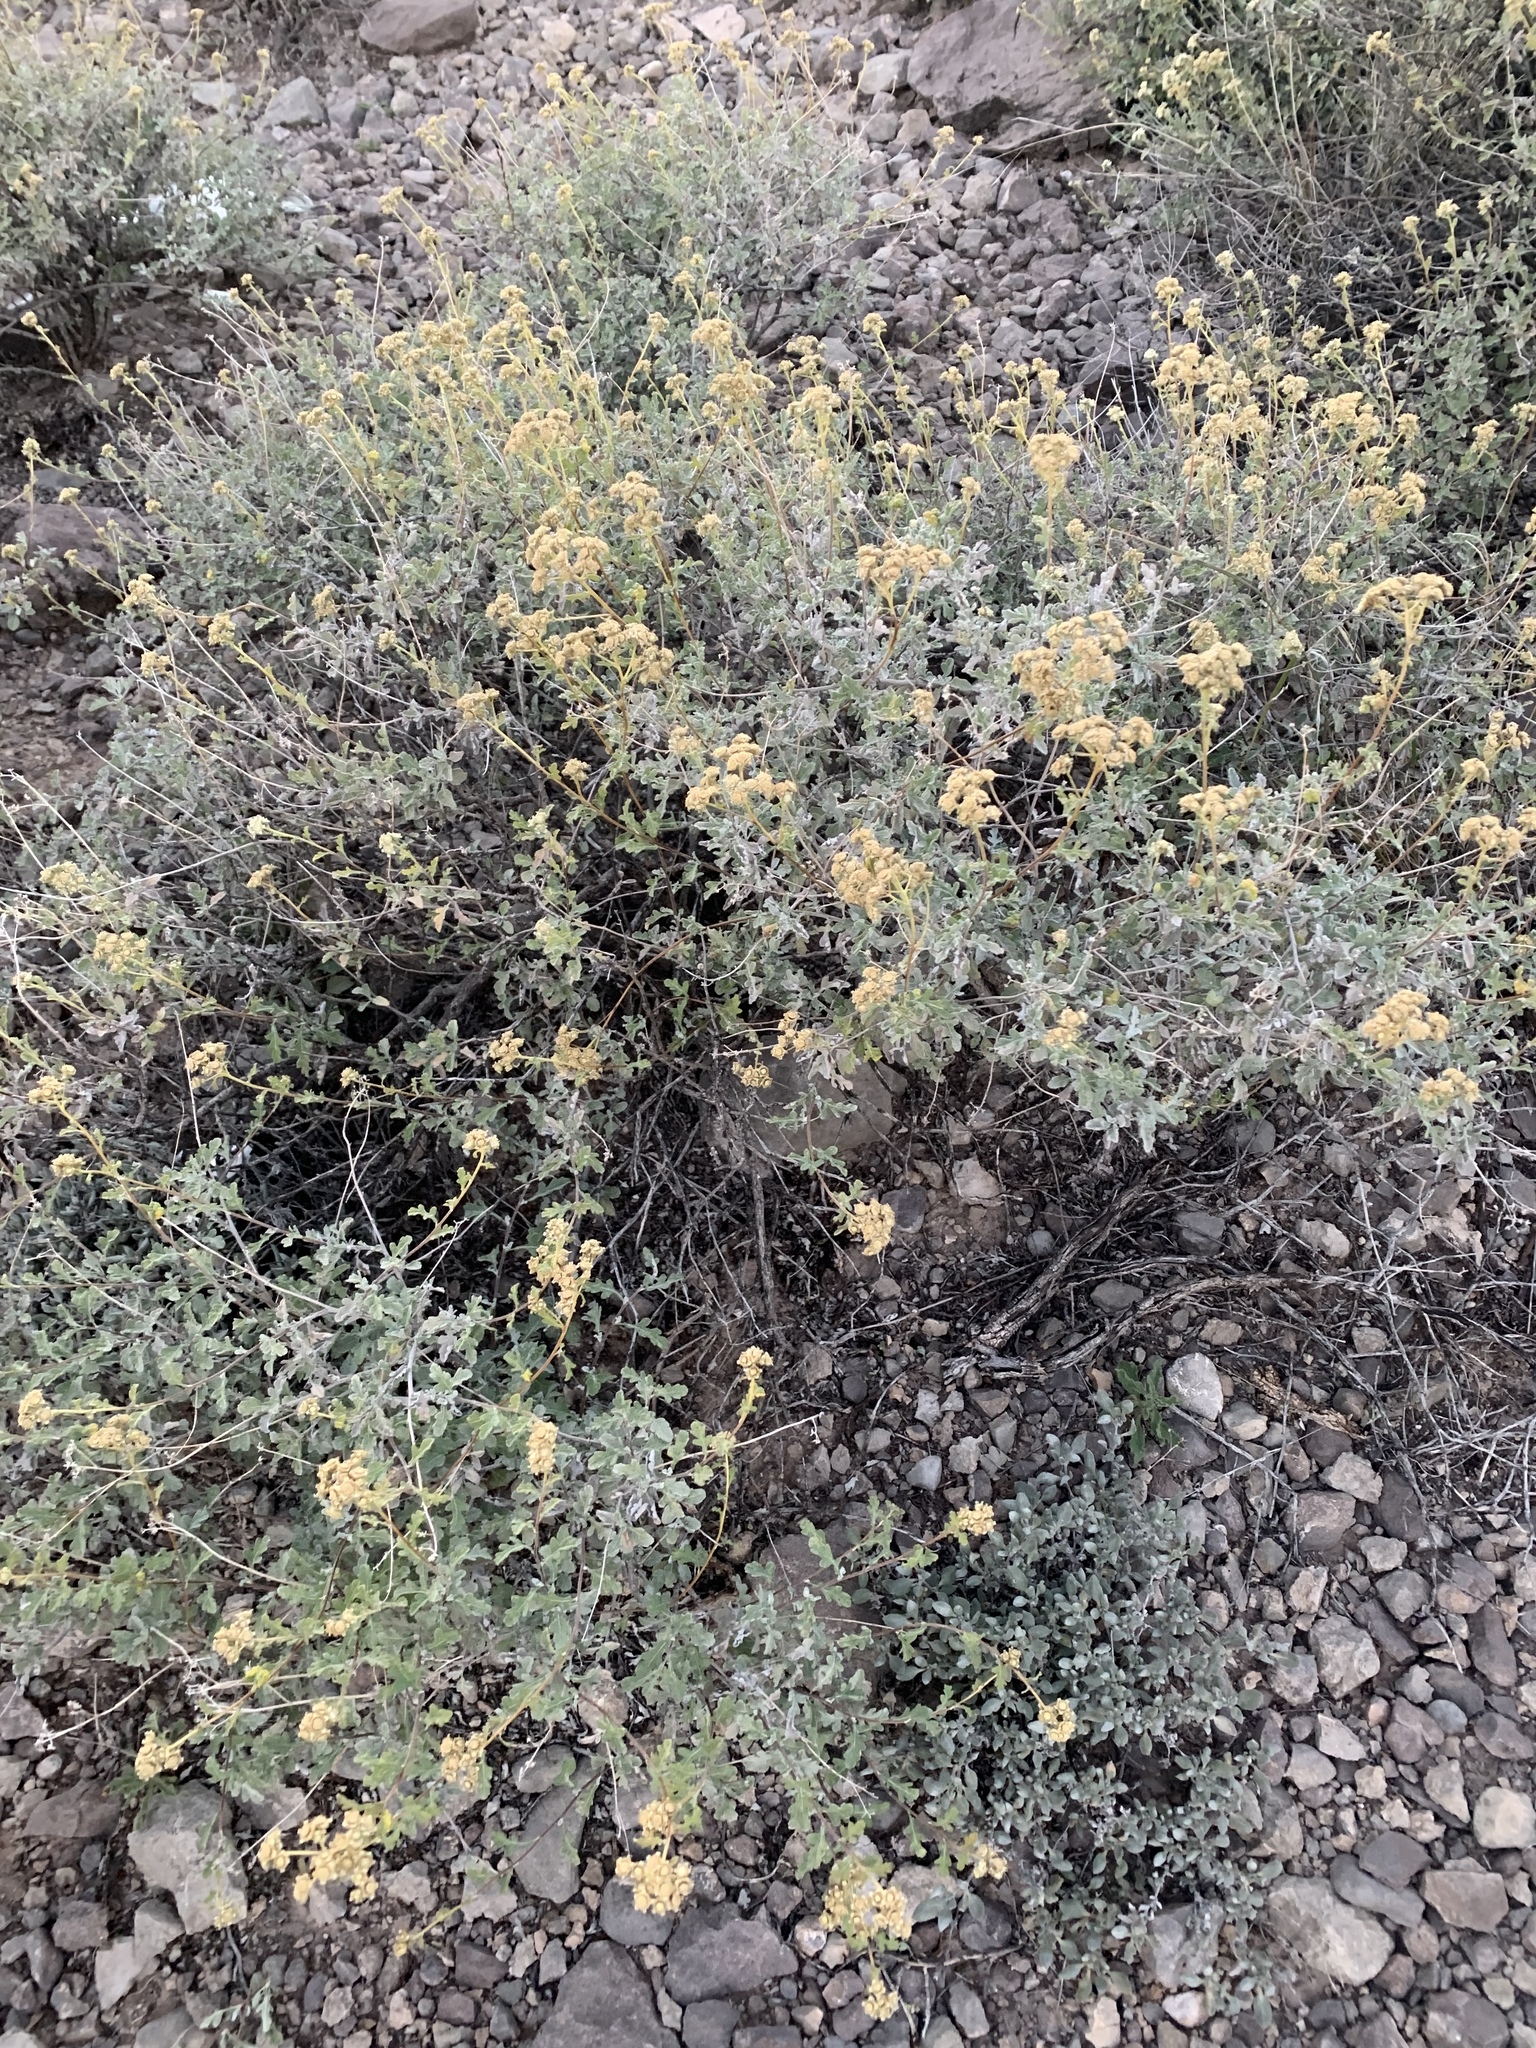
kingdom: Plantae
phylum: Tracheophyta
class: Magnoliopsida
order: Asterales
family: Asteraceae
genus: Parthenium
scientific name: Parthenium incanum
